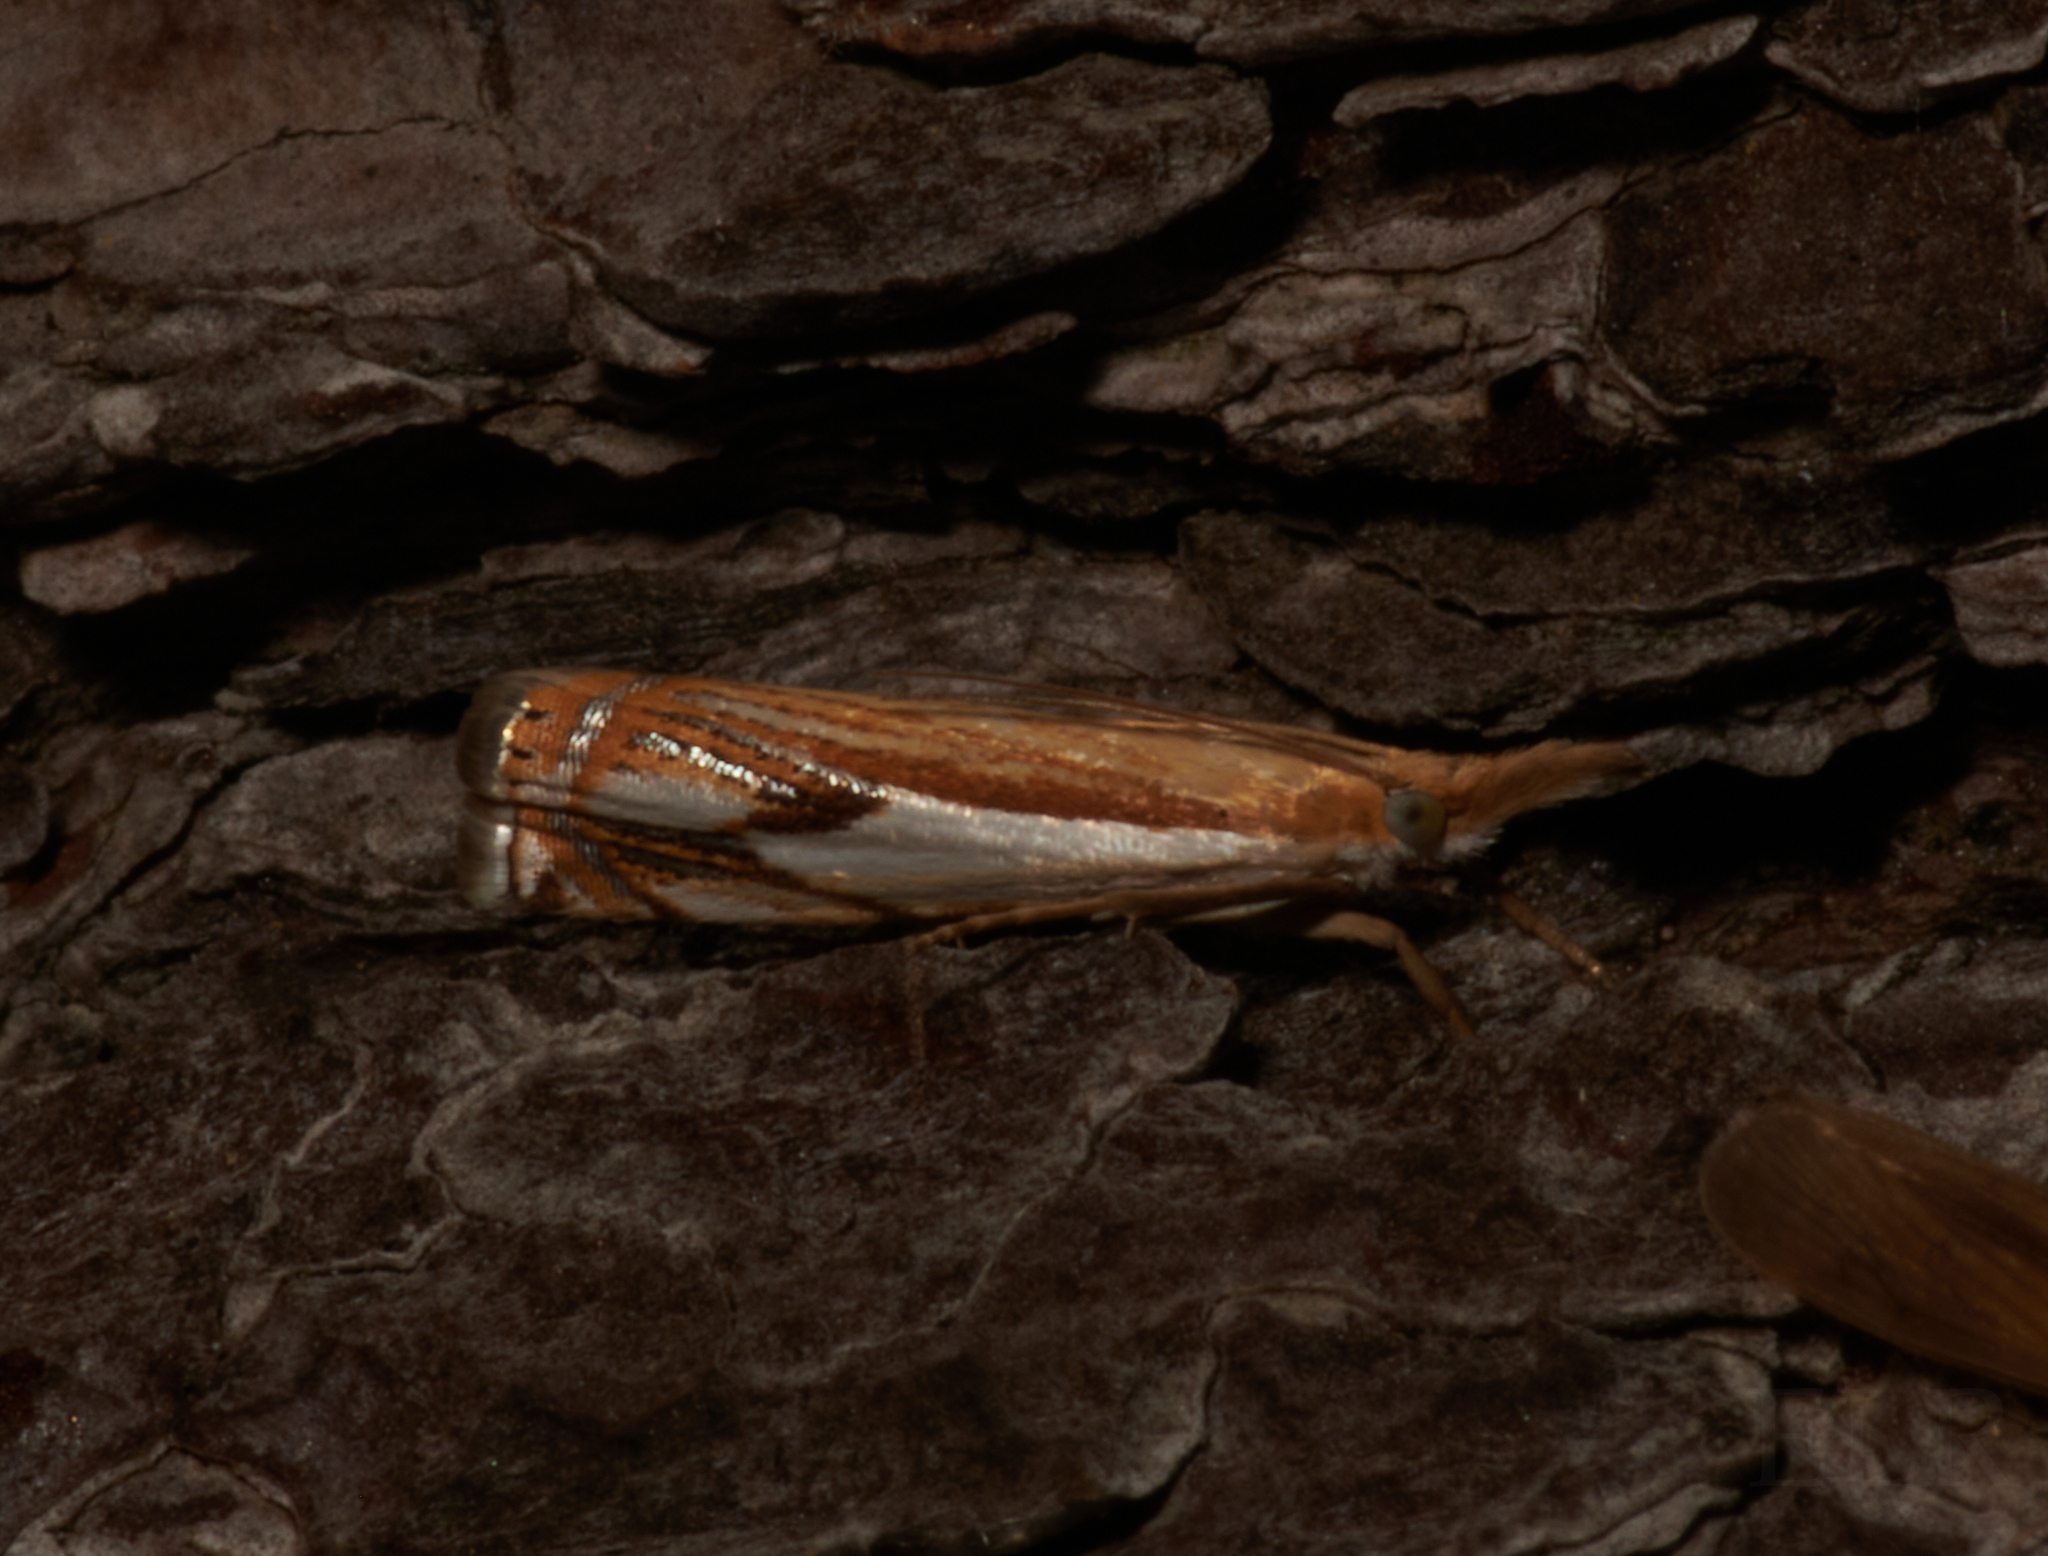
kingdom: Animalia
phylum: Arthropoda
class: Insecta
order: Lepidoptera
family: Crambidae
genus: Crambus
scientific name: Crambus agitatellus
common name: Double-banded grass-veneer
